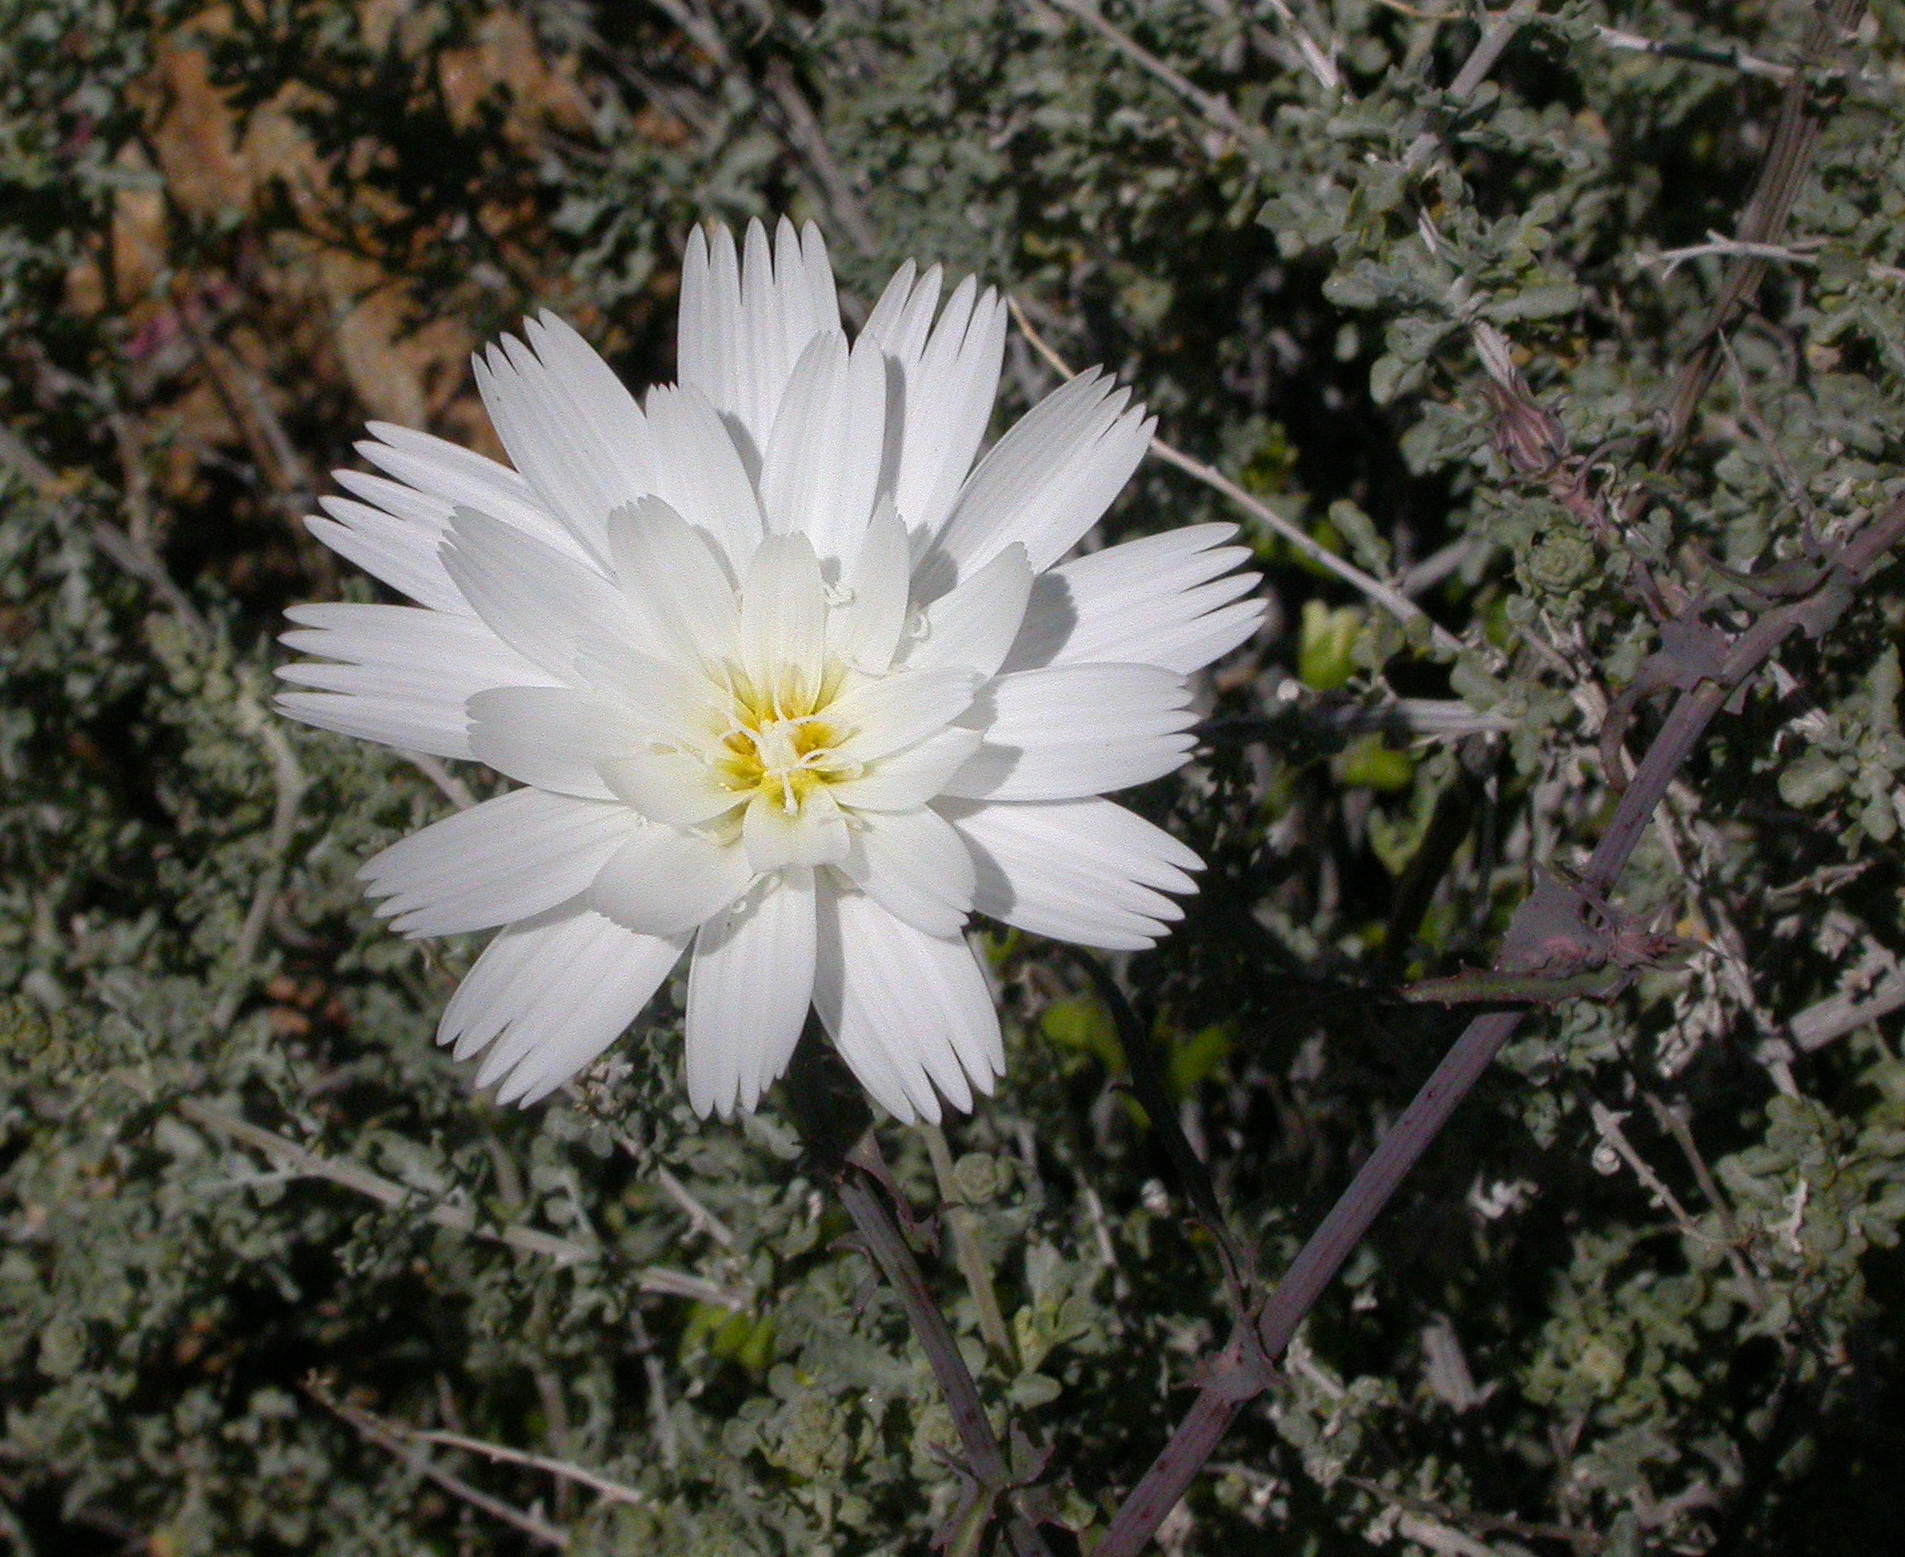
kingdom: Plantae
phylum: Tracheophyta
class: Magnoliopsida
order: Asterales
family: Asteraceae
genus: Rafinesquia
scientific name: Rafinesquia neomexicana
